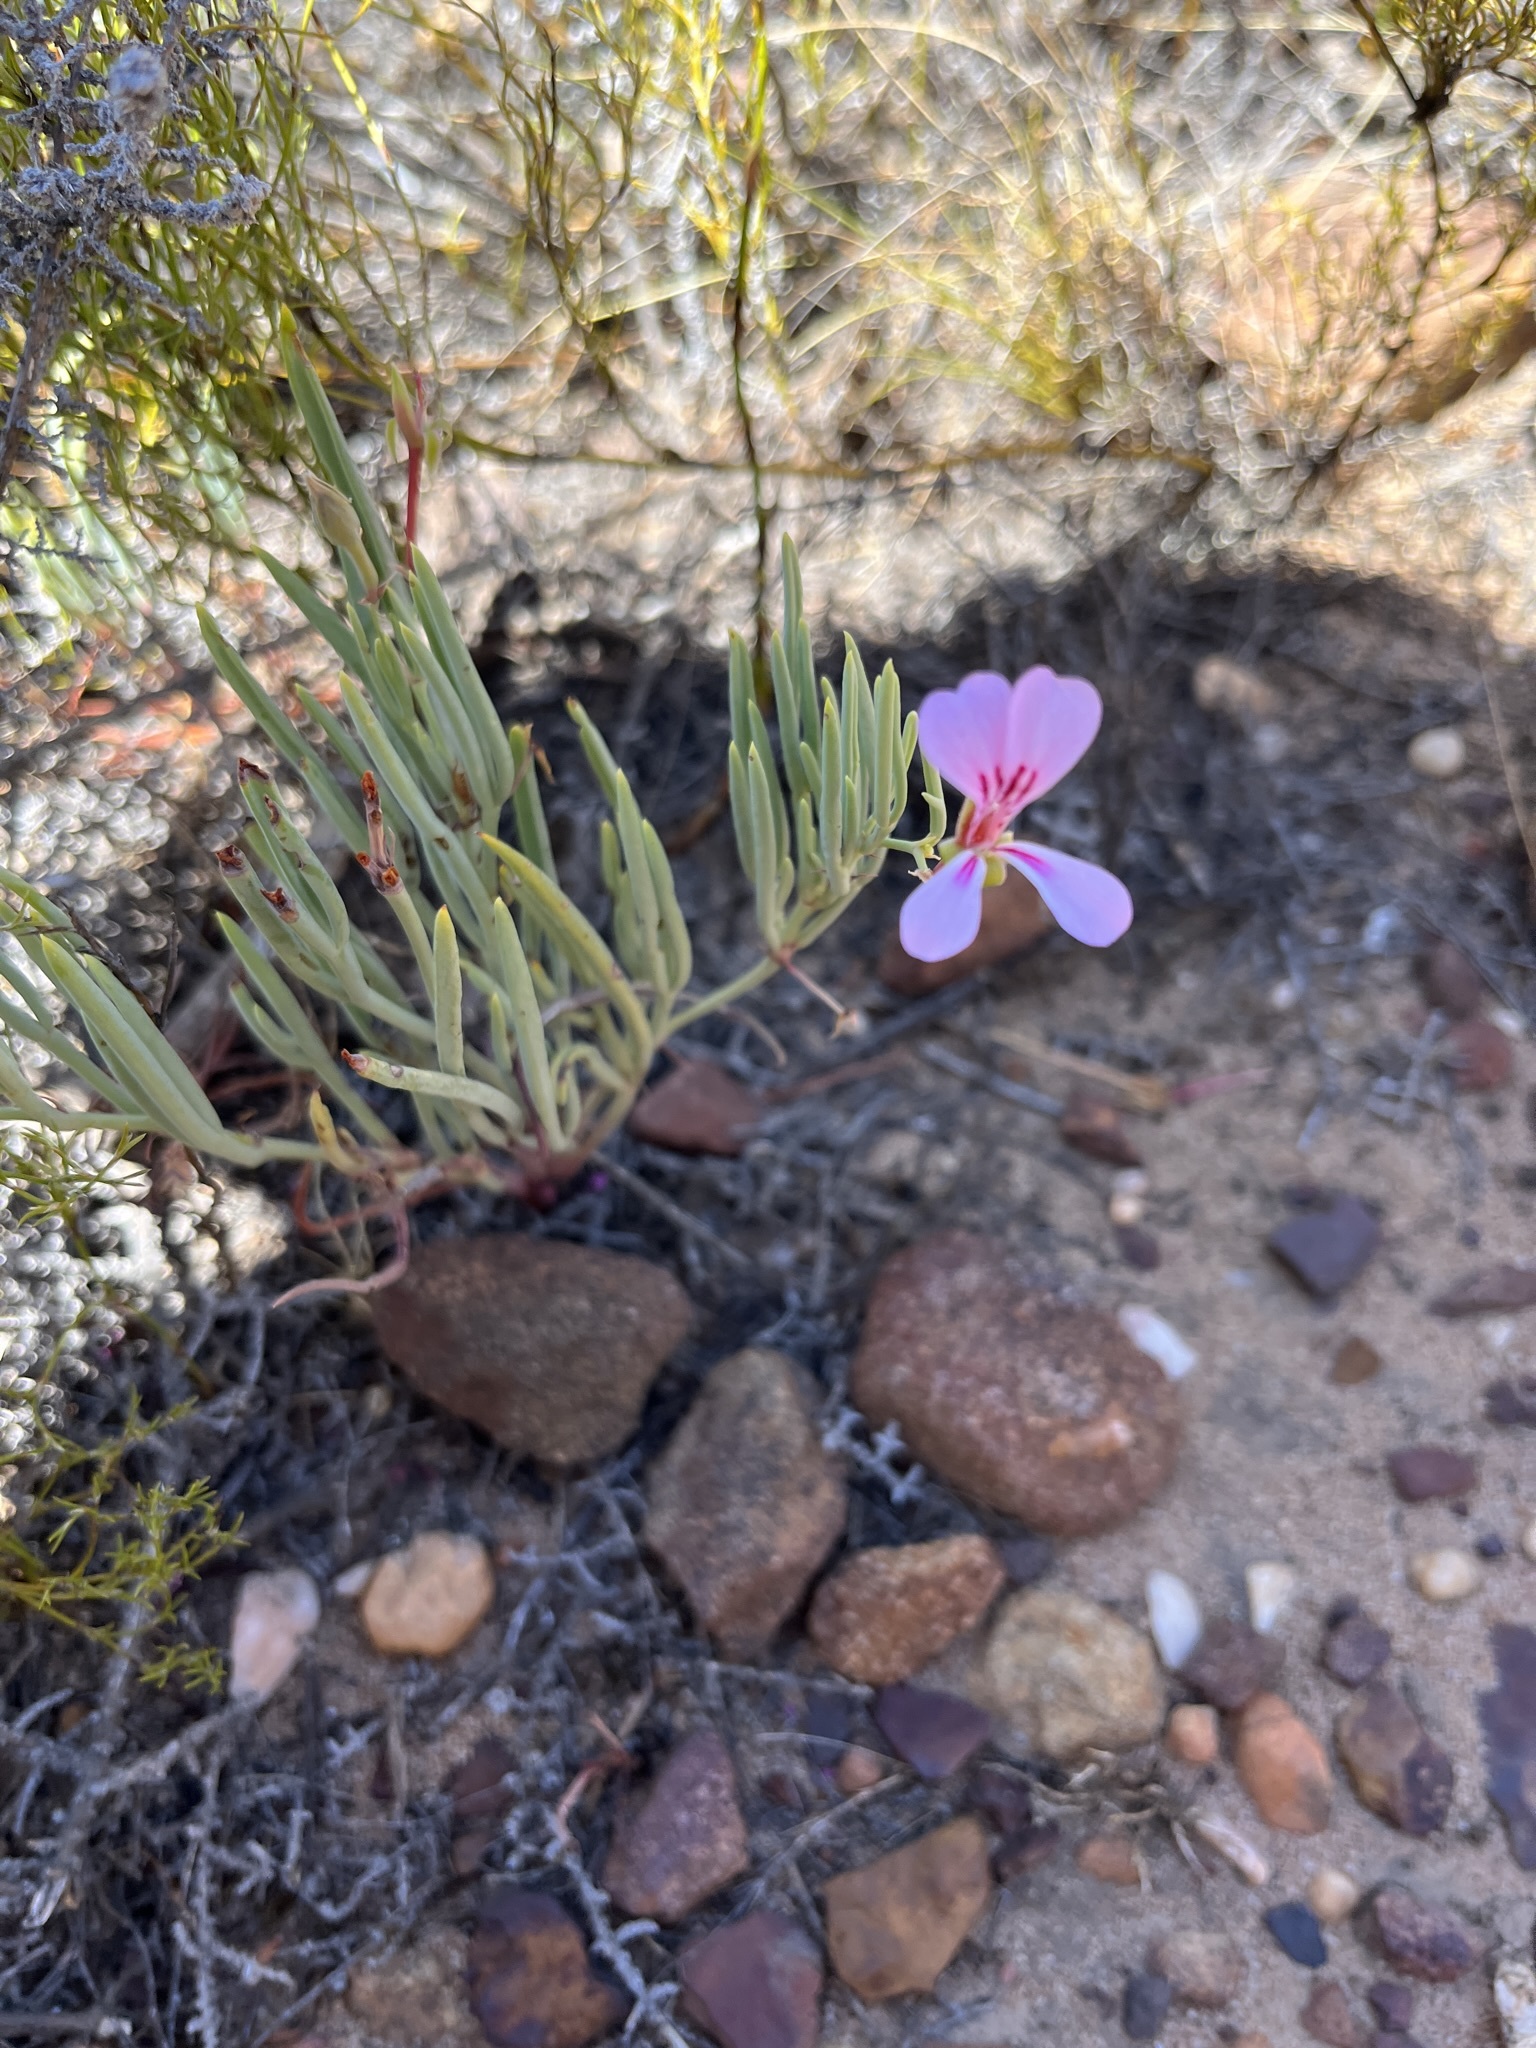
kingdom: Plantae
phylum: Tracheophyta
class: Magnoliopsida
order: Geraniales
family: Geraniaceae
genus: Pelargonium
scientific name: Pelargonium laevigatum
